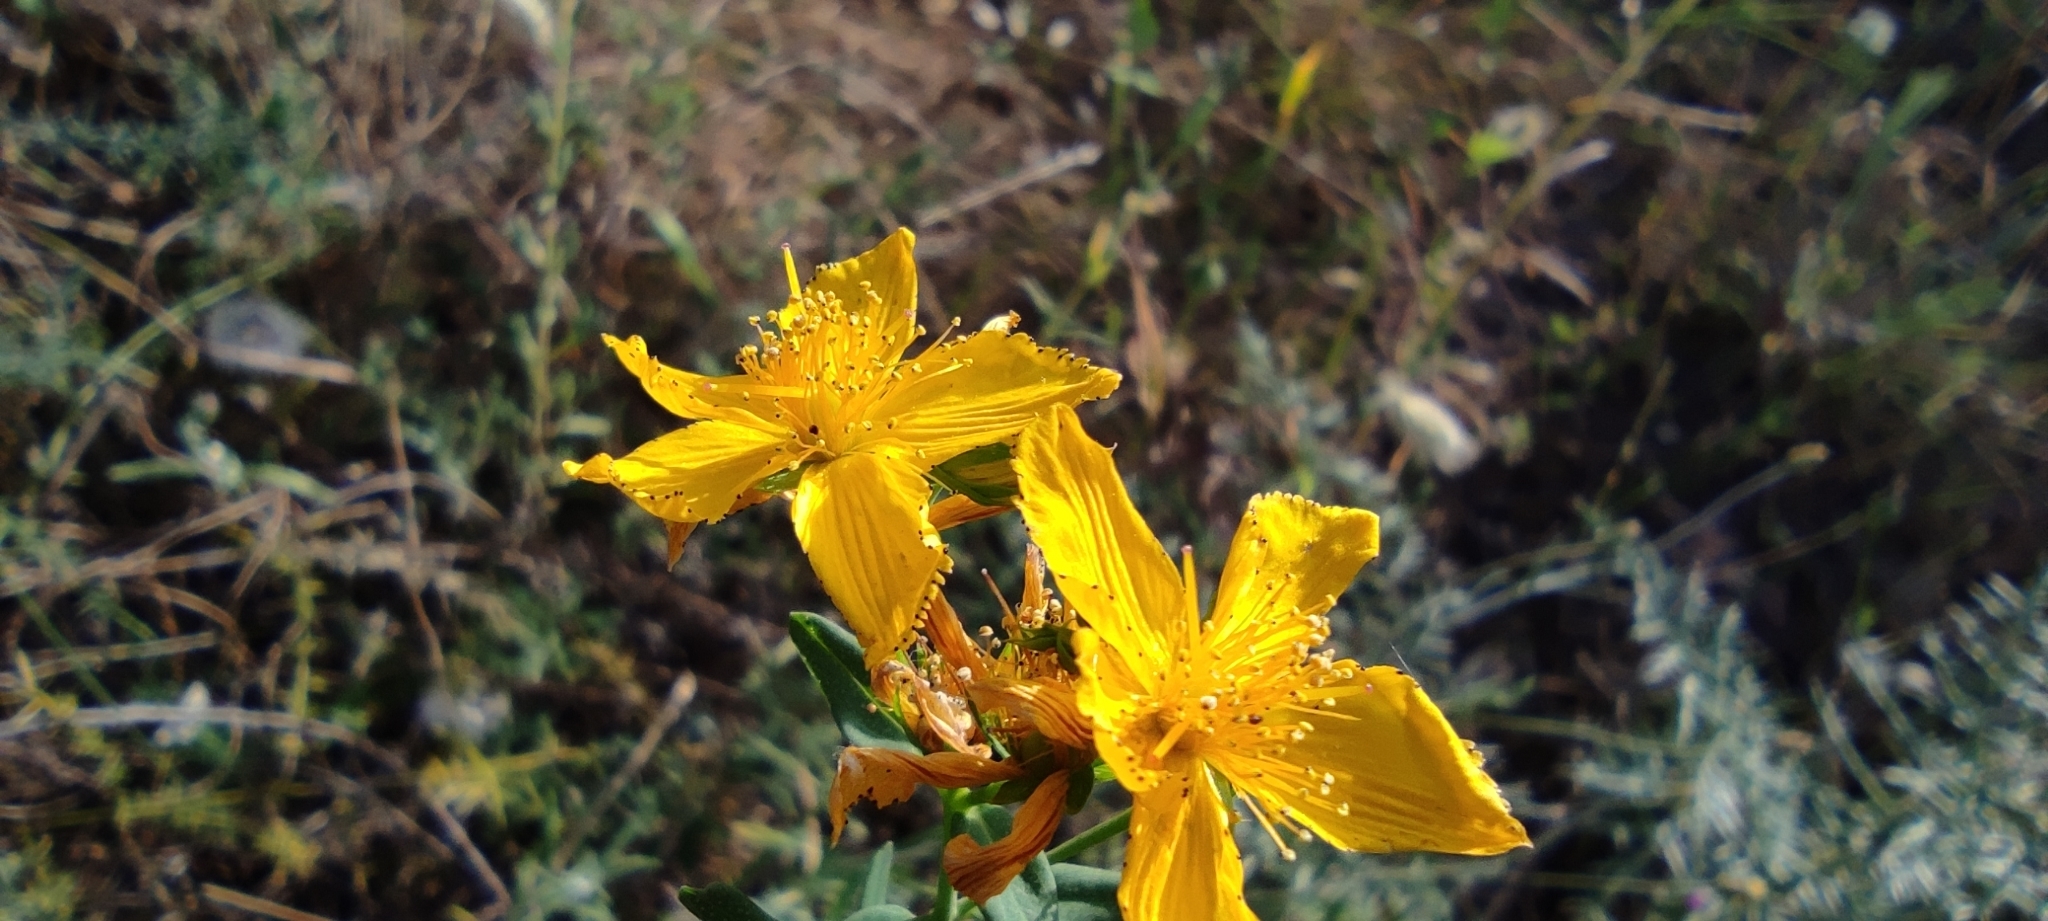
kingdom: Plantae
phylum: Tracheophyta
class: Magnoliopsida
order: Malpighiales
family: Hypericaceae
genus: Hypericum
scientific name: Hypericum perforatum
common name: Common st. johnswort
